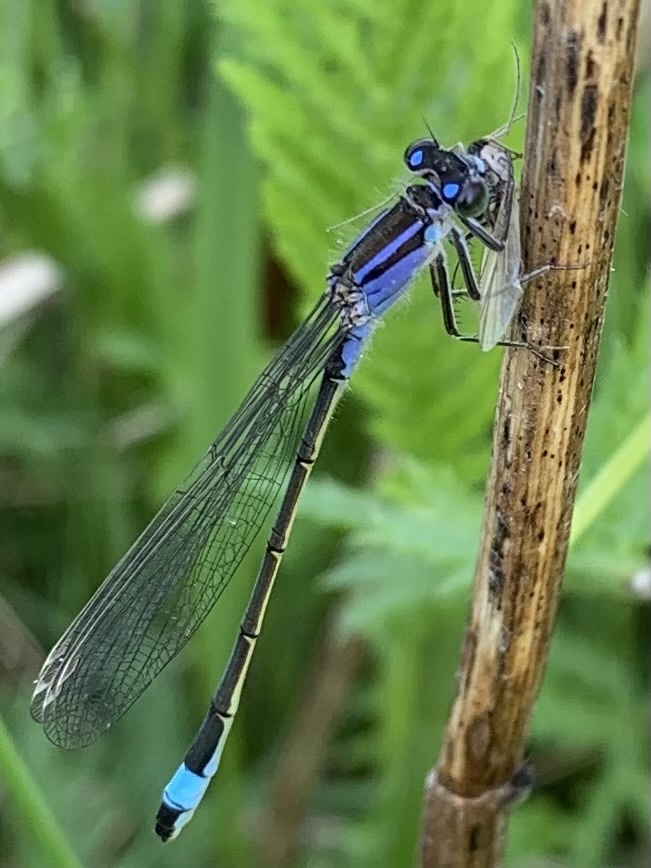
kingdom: Animalia
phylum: Arthropoda
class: Insecta
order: Odonata
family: Coenagrionidae
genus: Ischnura
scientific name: Ischnura elegans
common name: Blue-tailed damselfly
